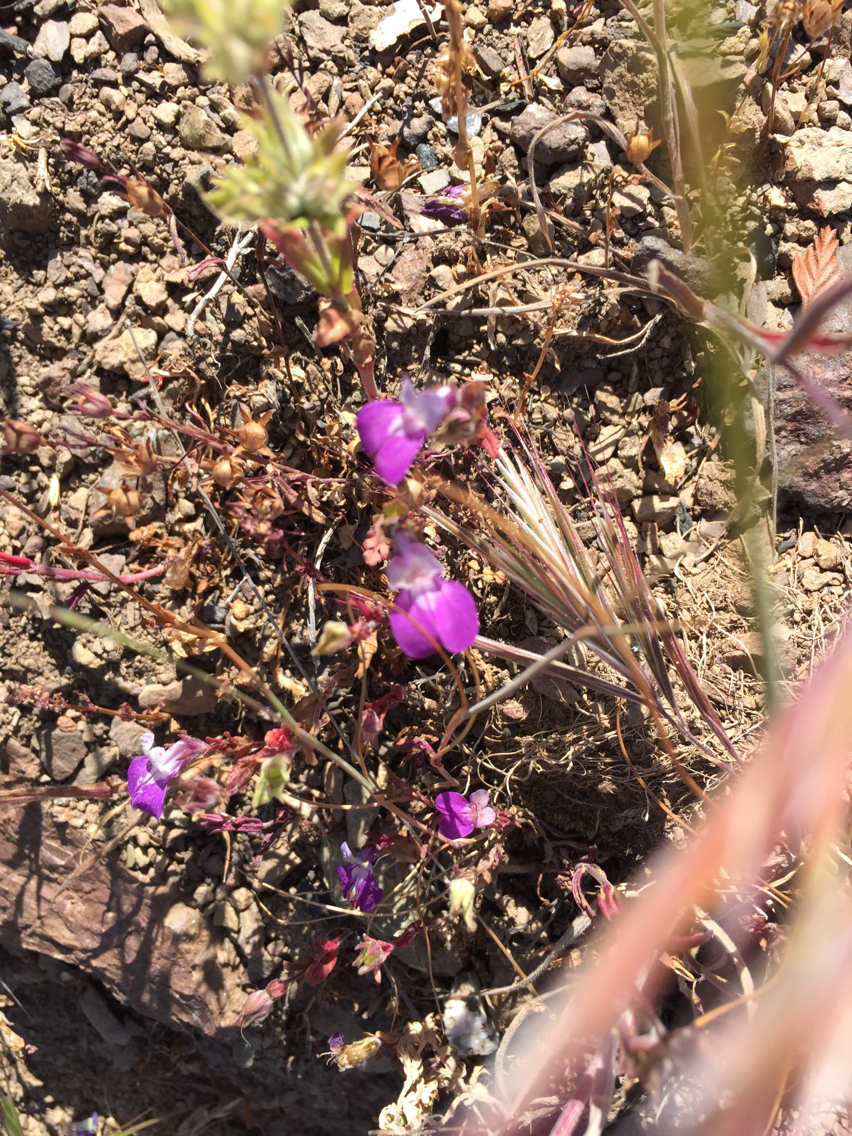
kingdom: Plantae
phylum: Tracheophyta
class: Magnoliopsida
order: Lamiales
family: Plantaginaceae
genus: Collinsia
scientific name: Collinsia heterophylla
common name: Chinese-houses
